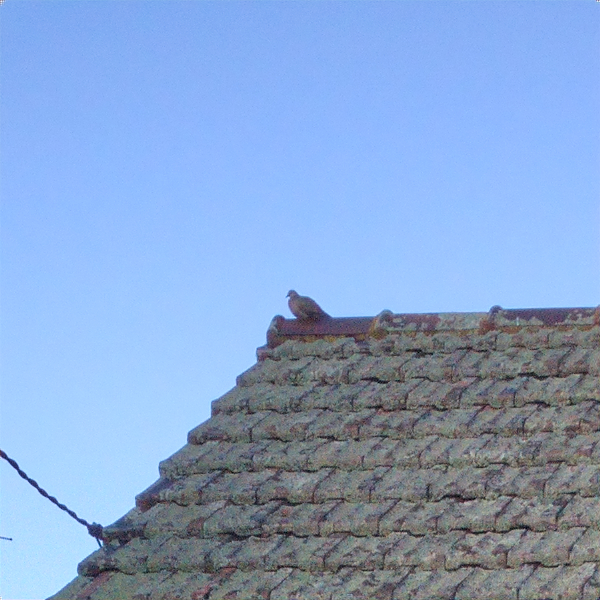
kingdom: Animalia
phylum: Chordata
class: Aves
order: Columbiformes
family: Columbidae
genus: Spilopelia
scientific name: Spilopelia chinensis
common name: Spotted dove
